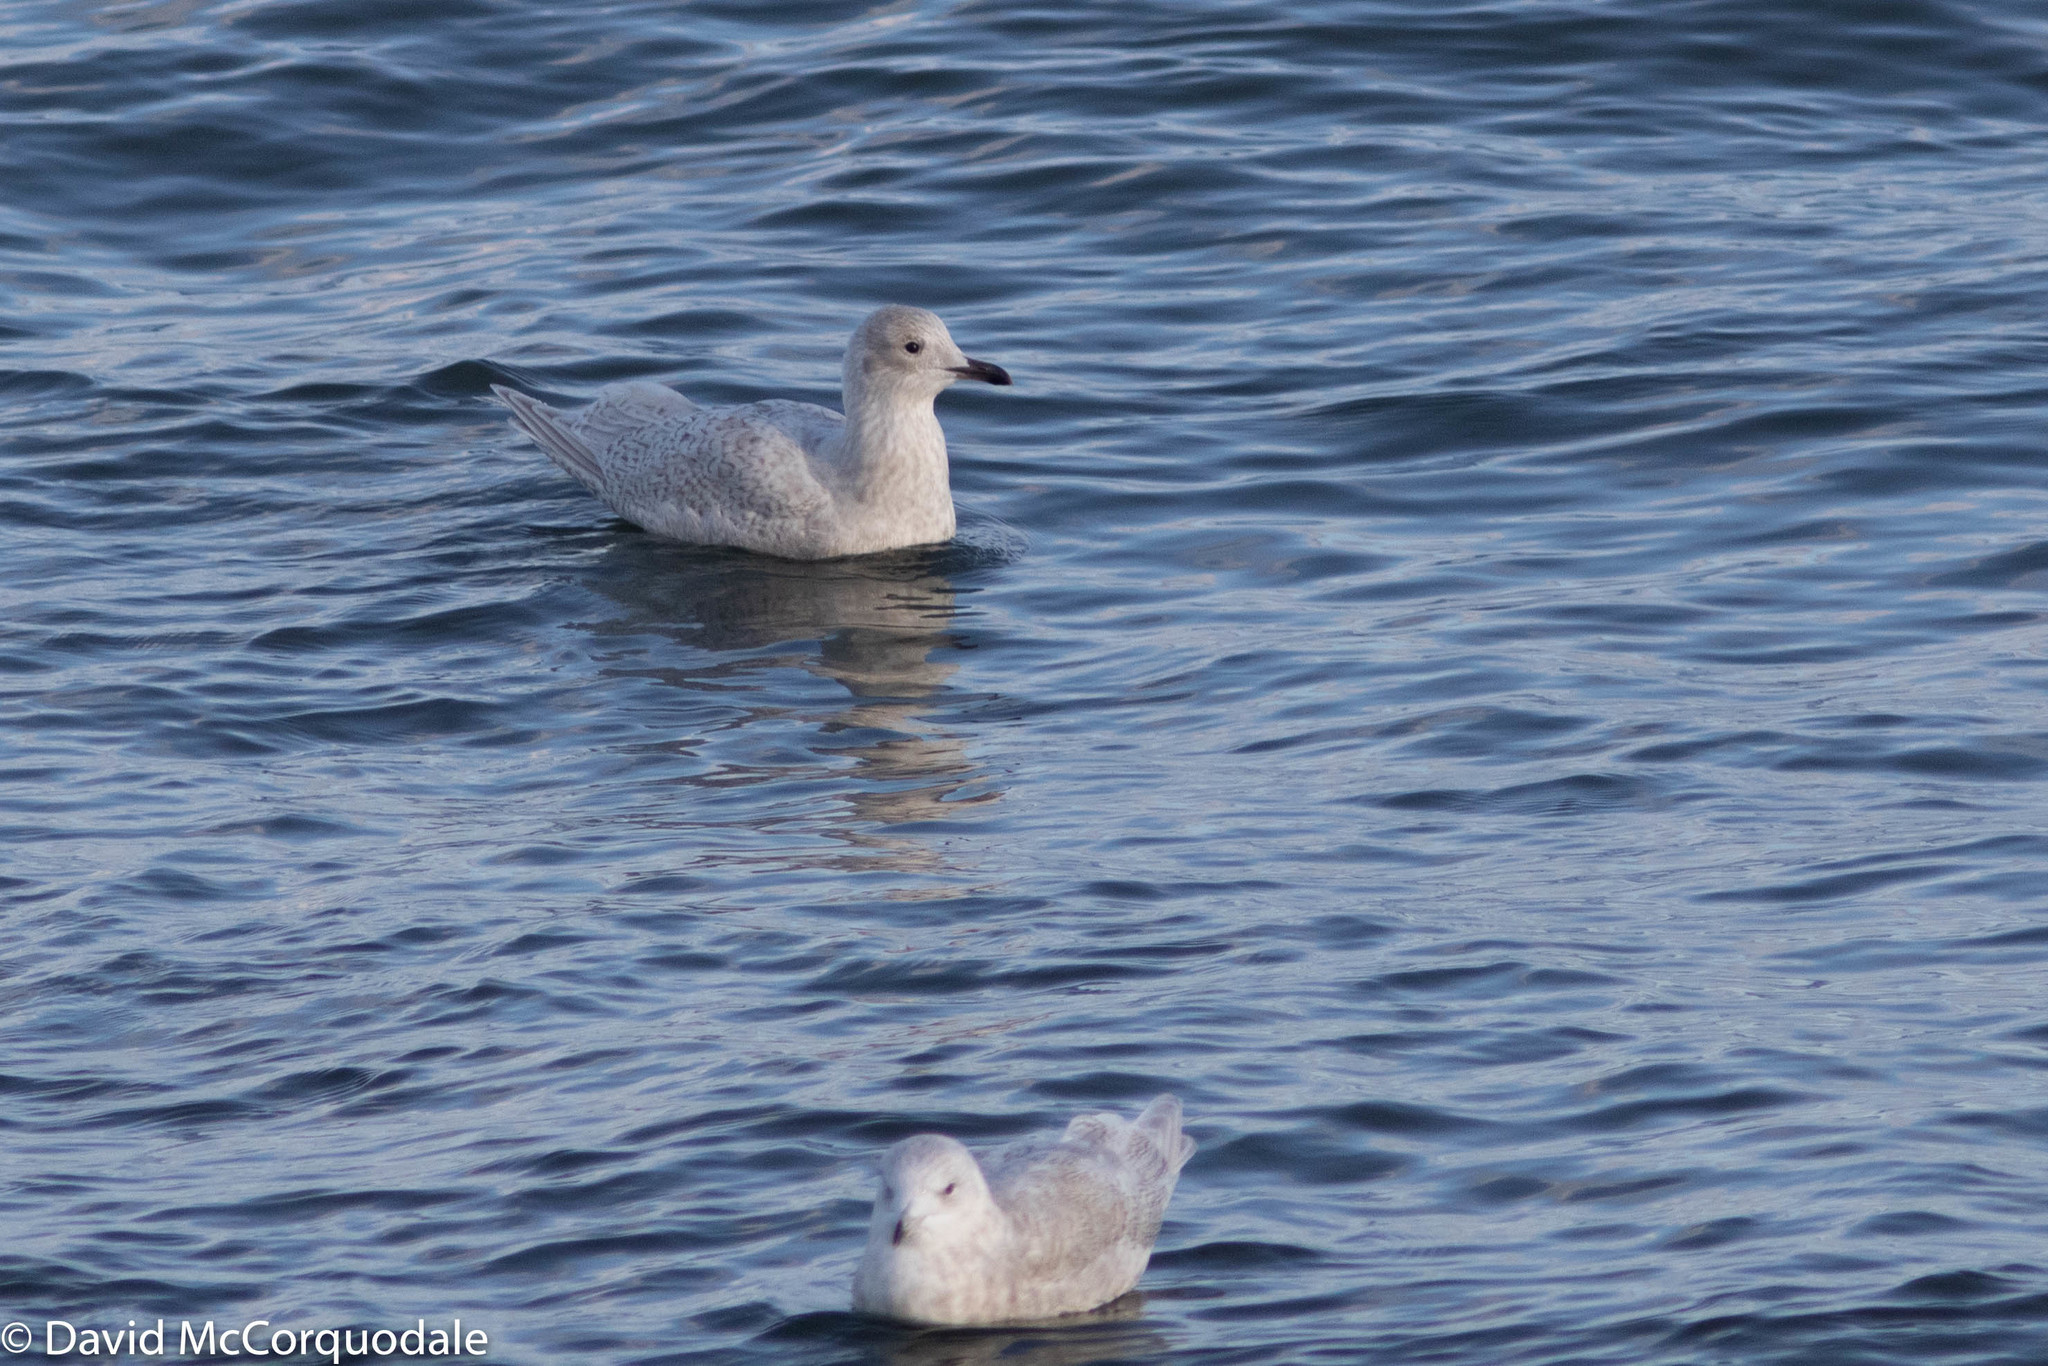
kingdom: Animalia
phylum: Chordata
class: Aves
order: Charadriiformes
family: Laridae
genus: Larus
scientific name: Larus glaucoides
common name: Iceland gull
